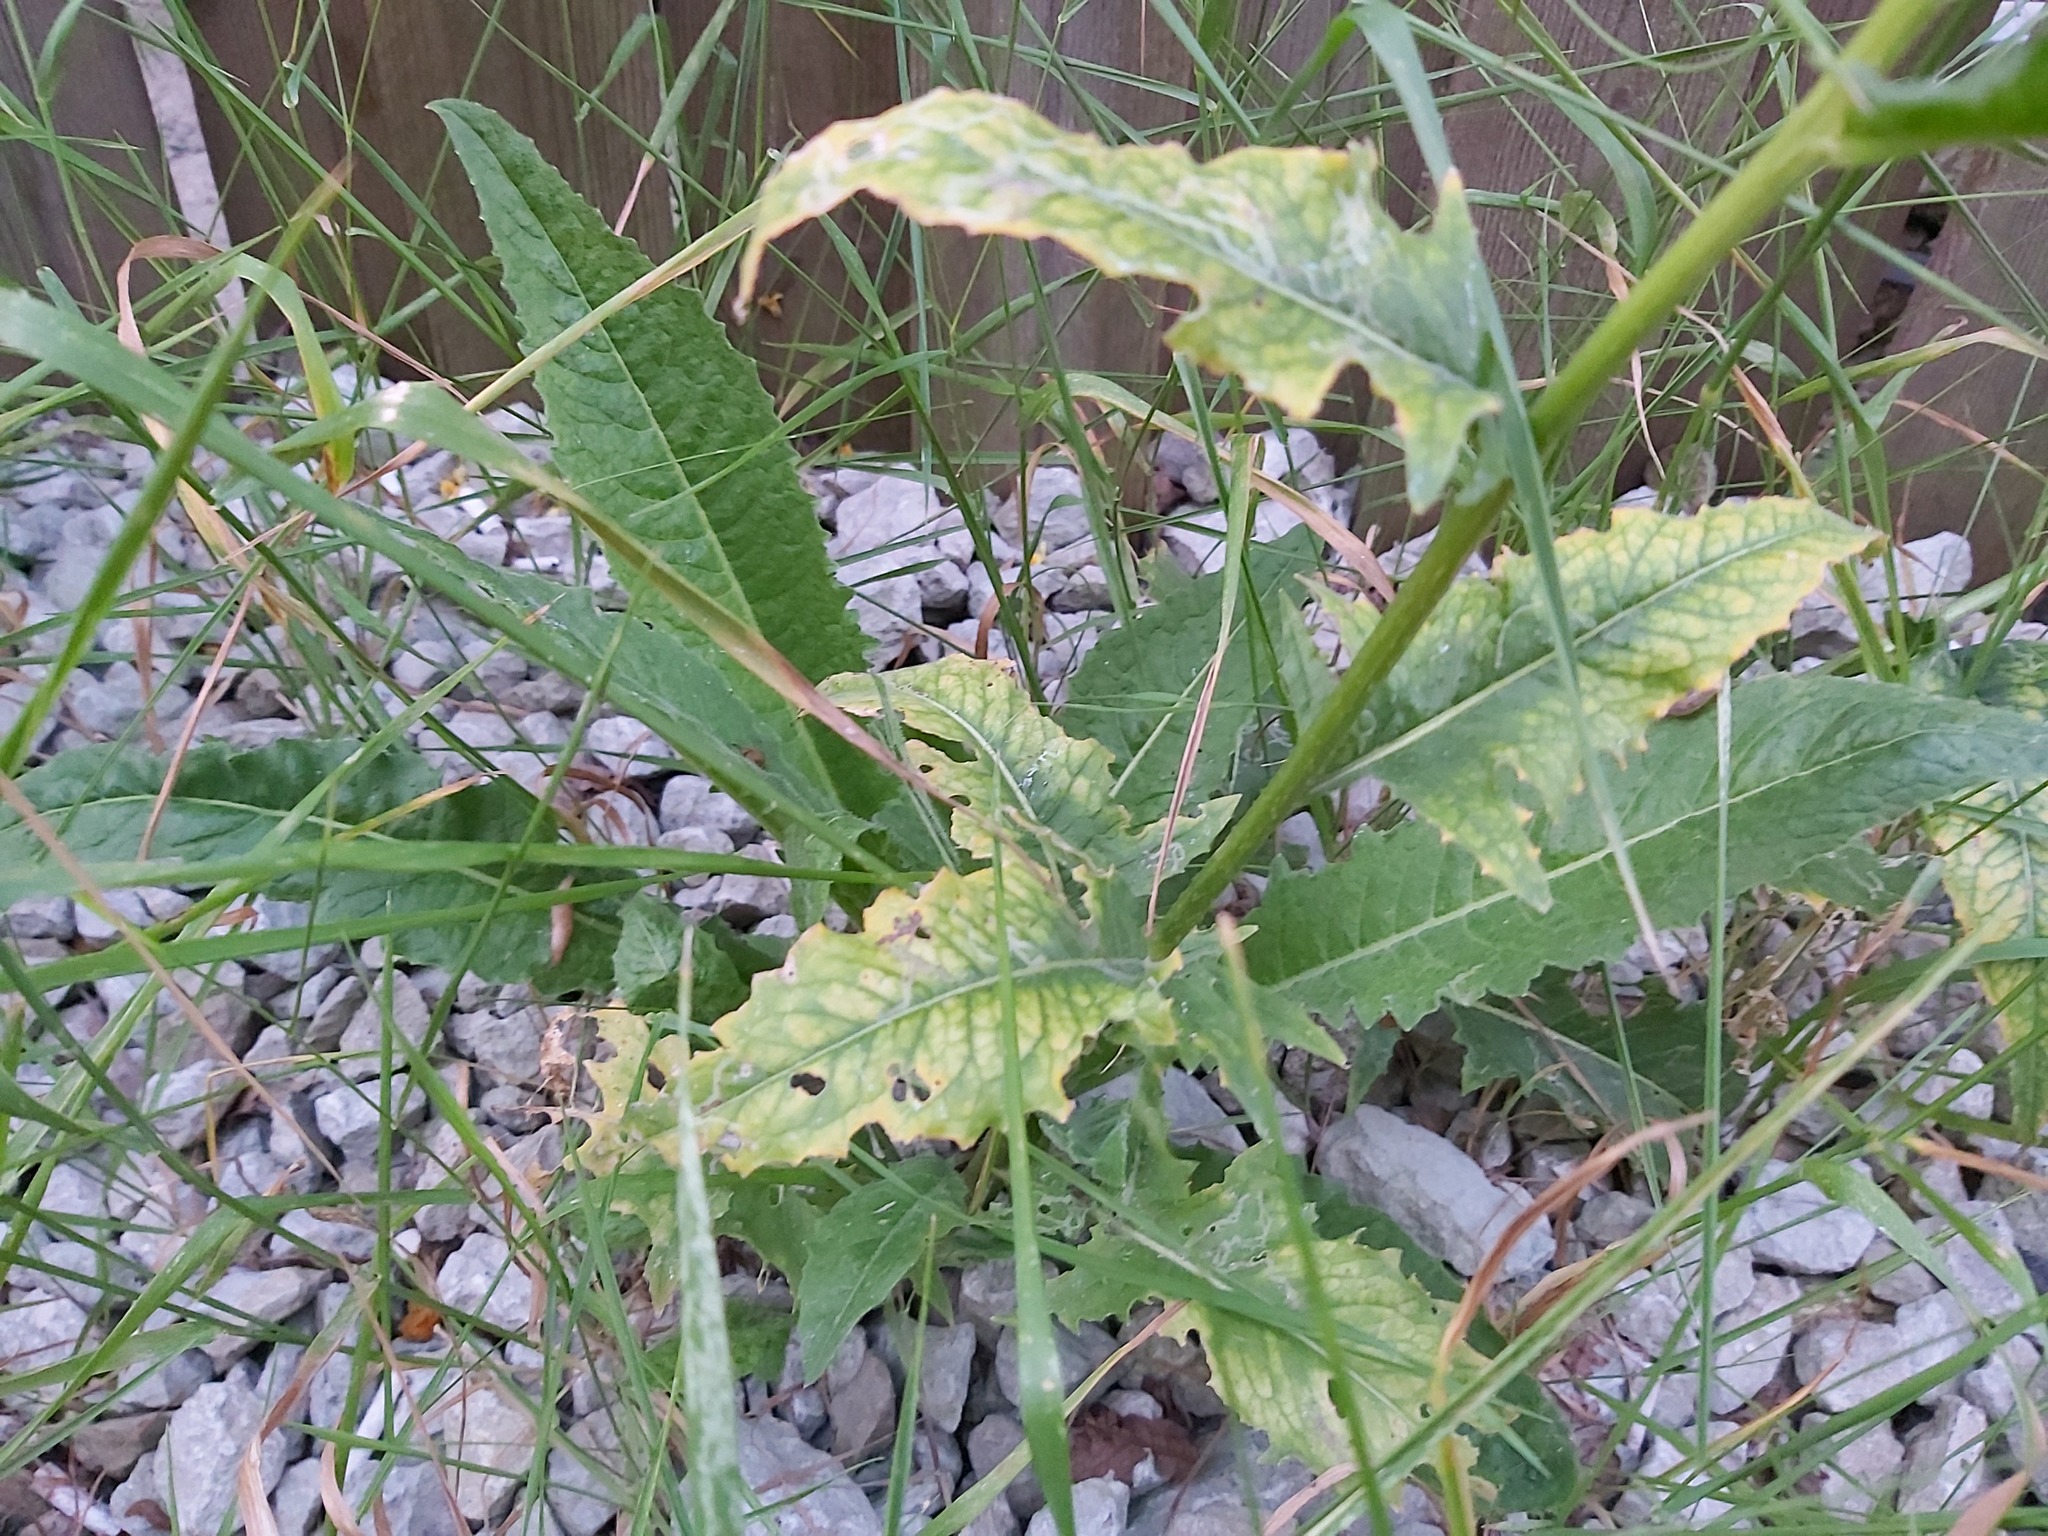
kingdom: Plantae
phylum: Tracheophyta
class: Magnoliopsida
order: Brassicales
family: Brassicaceae
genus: Bunias
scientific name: Bunias orientalis
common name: Warty-cabbage
